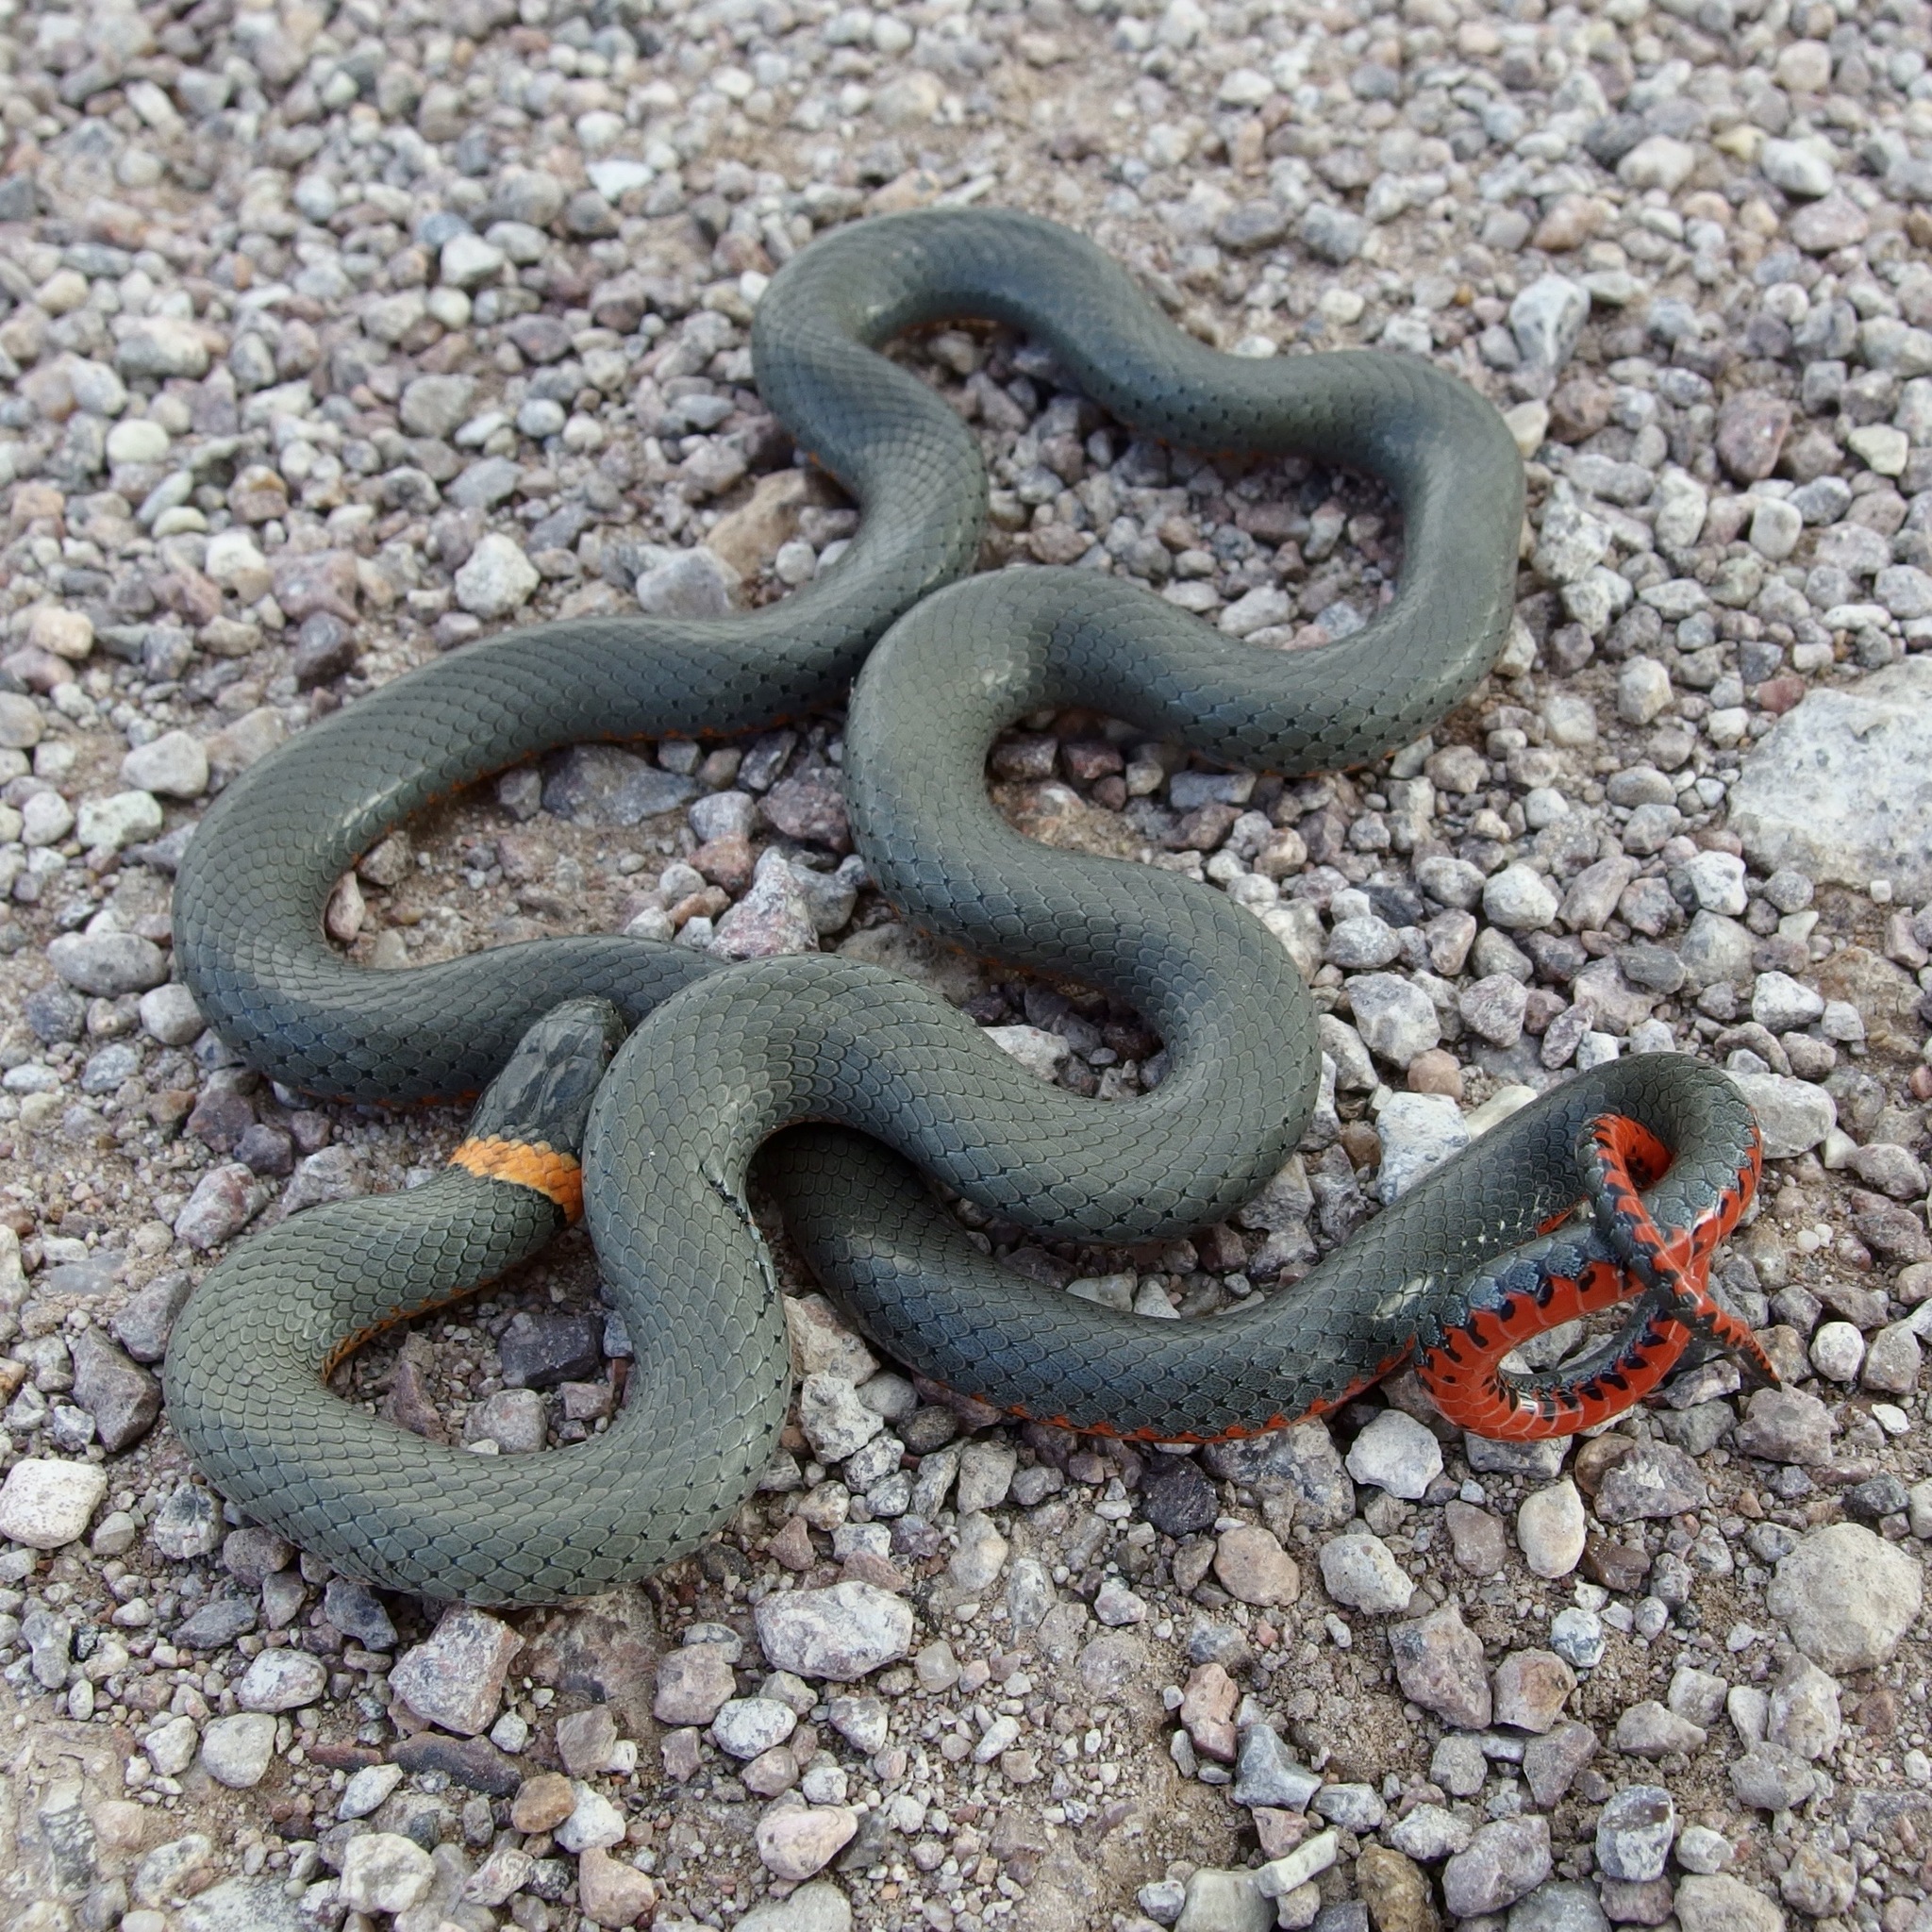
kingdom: Animalia
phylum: Chordata
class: Squamata
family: Colubridae
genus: Diadophis
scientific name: Diadophis punctatus
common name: Ringneck snake
